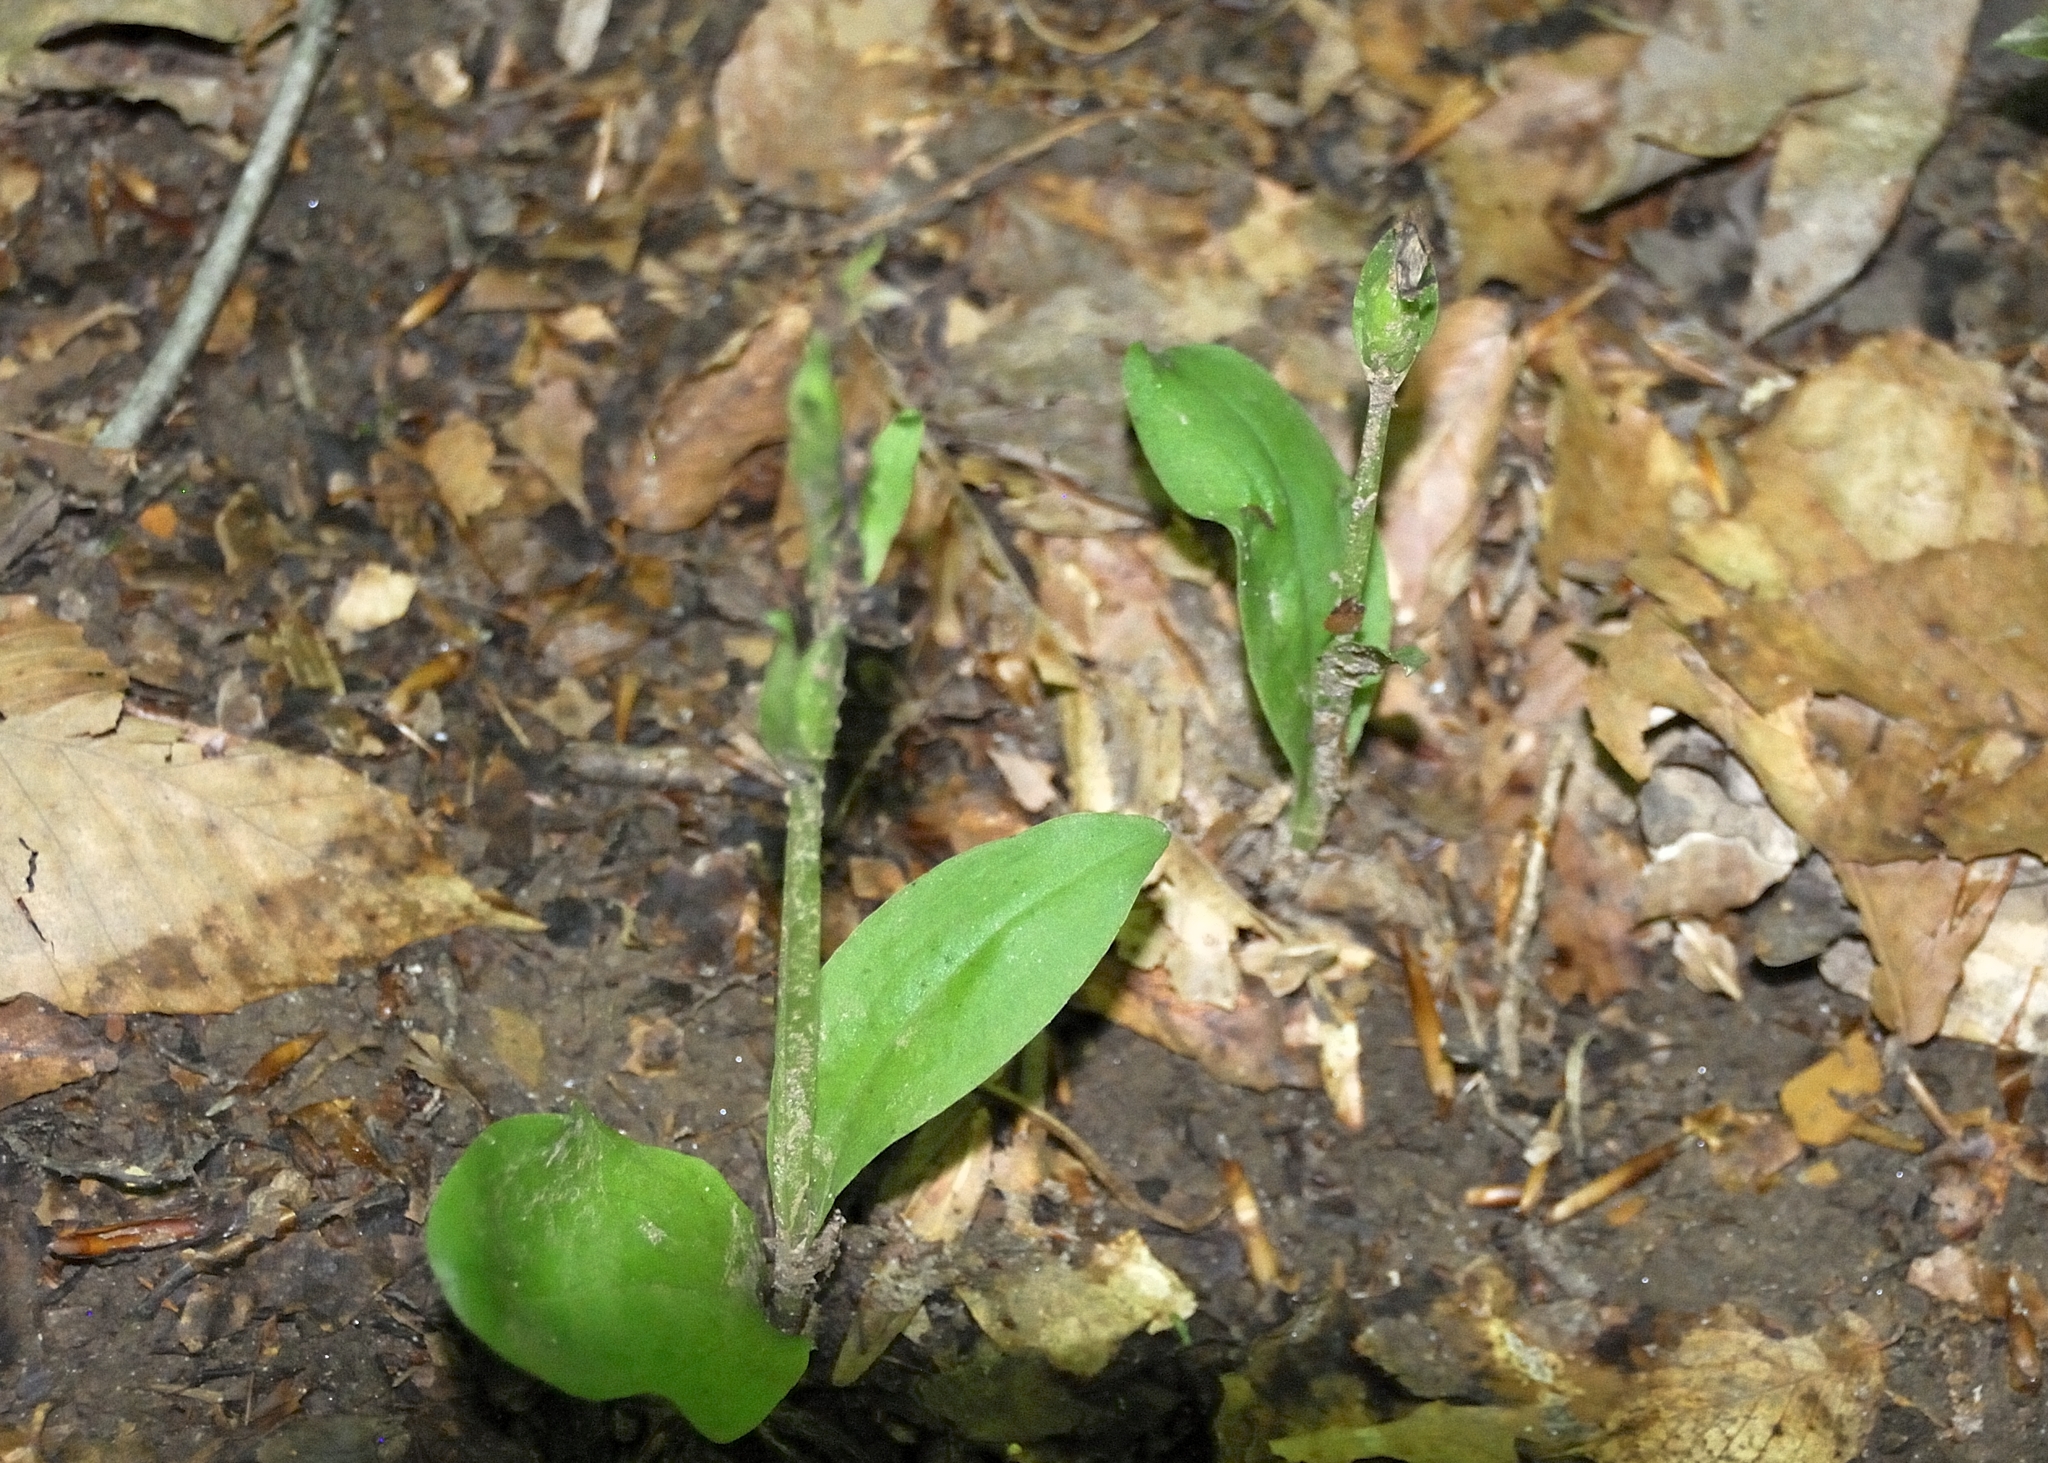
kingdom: Plantae
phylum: Tracheophyta
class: Liliopsida
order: Asparagales
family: Orchidaceae
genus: Galearis
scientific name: Galearis spectabilis
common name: Purple-hooded orchis
